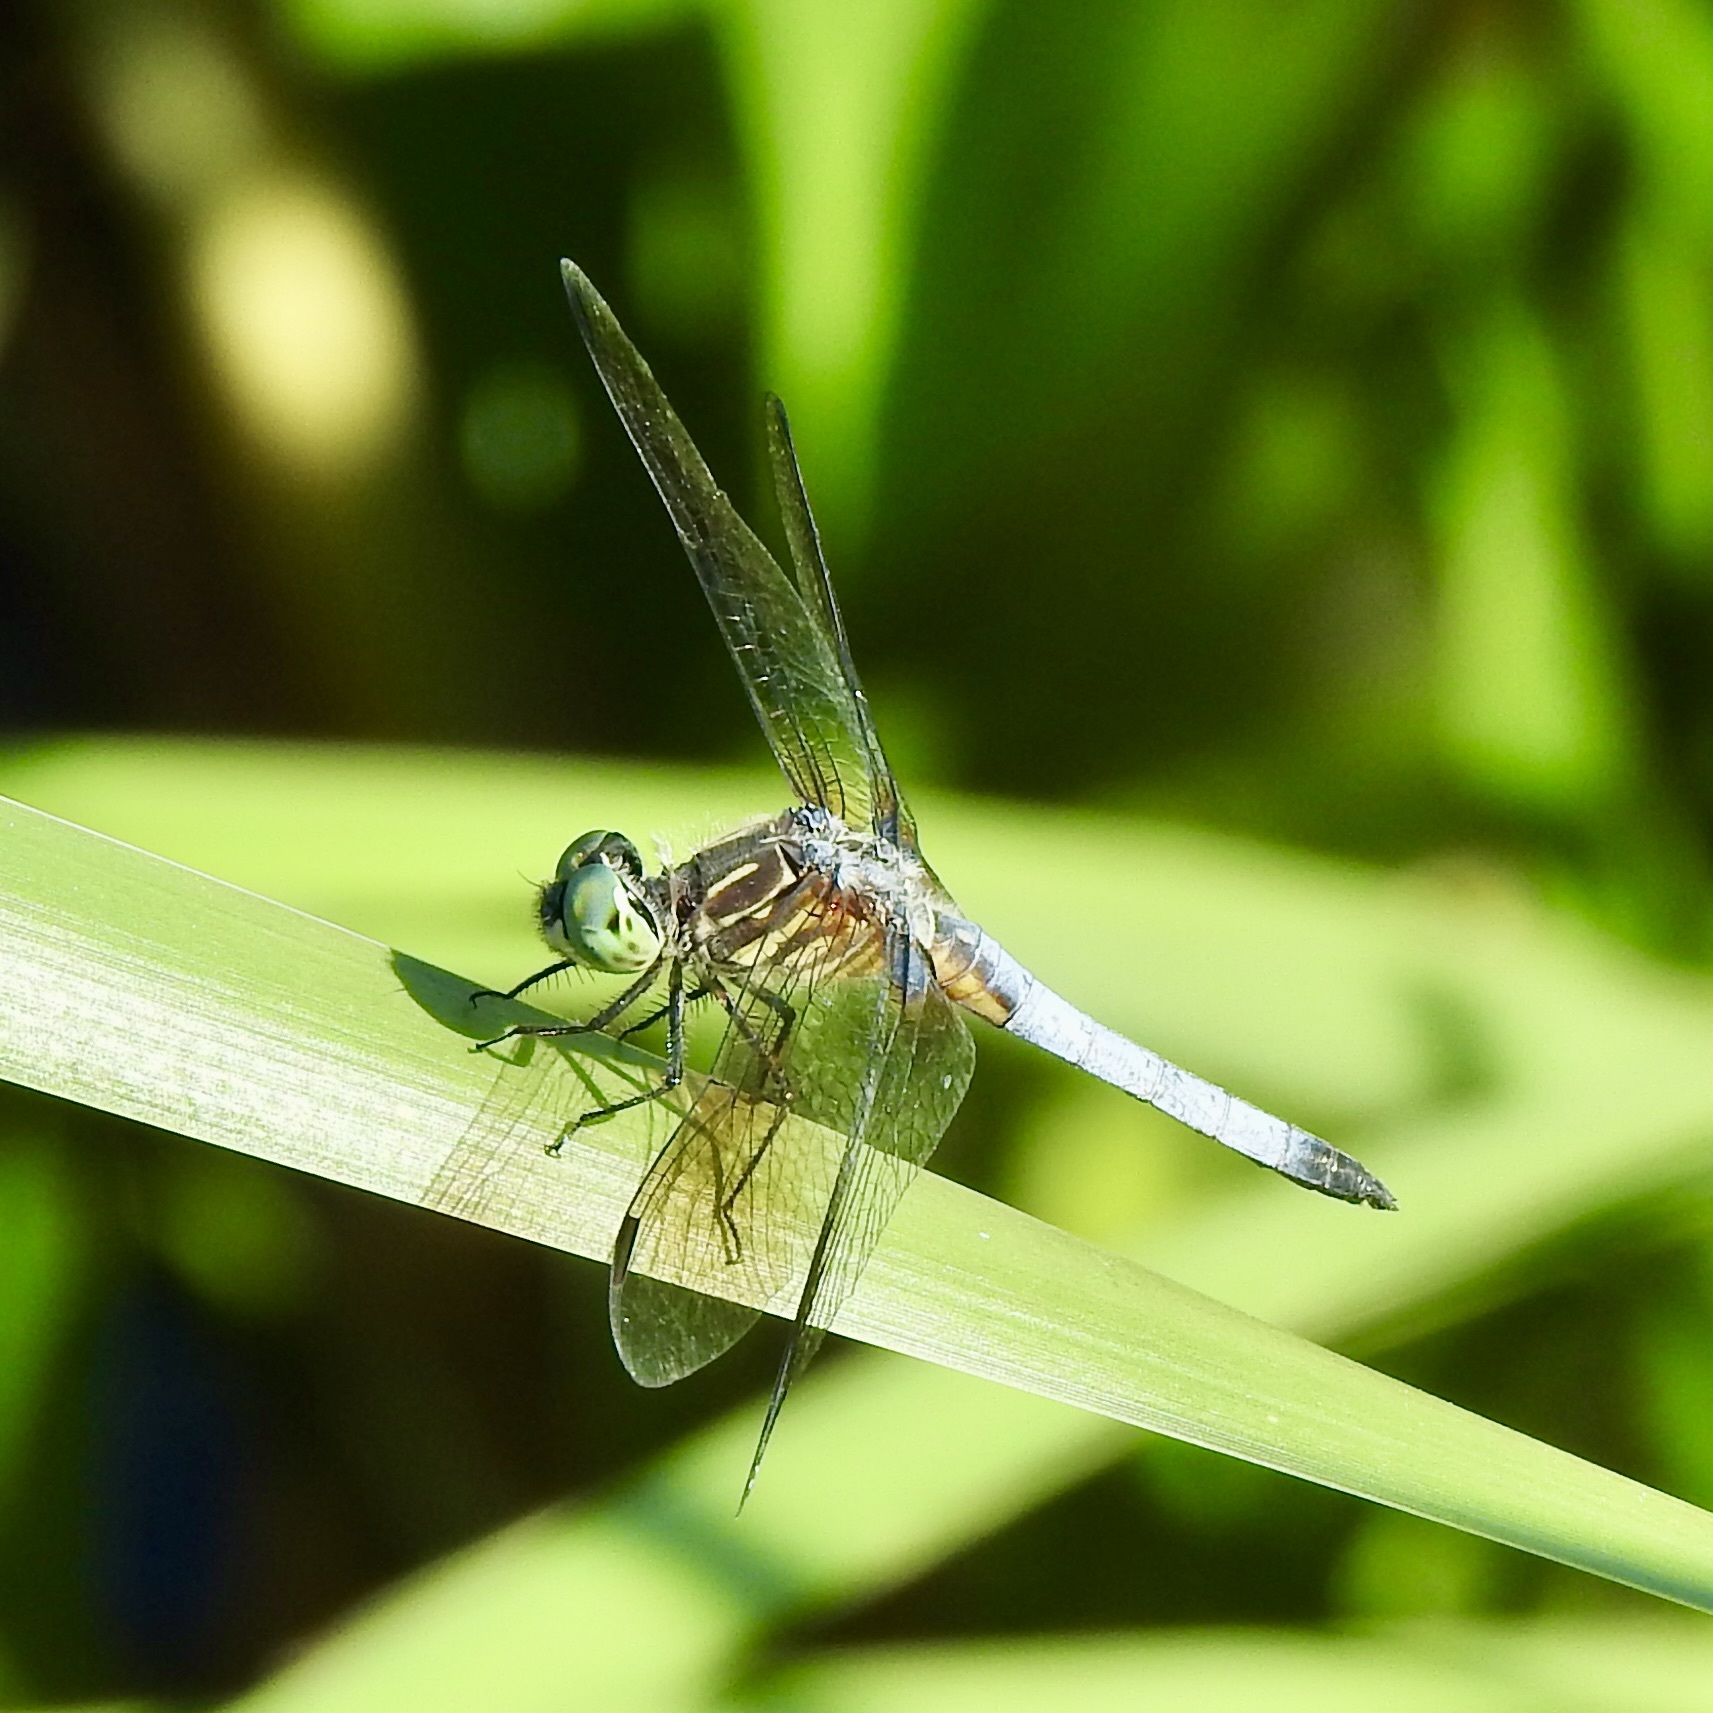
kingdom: Animalia
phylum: Arthropoda
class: Insecta
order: Odonata
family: Libellulidae
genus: Pachydiplax
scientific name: Pachydiplax longipennis
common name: Blue dasher
